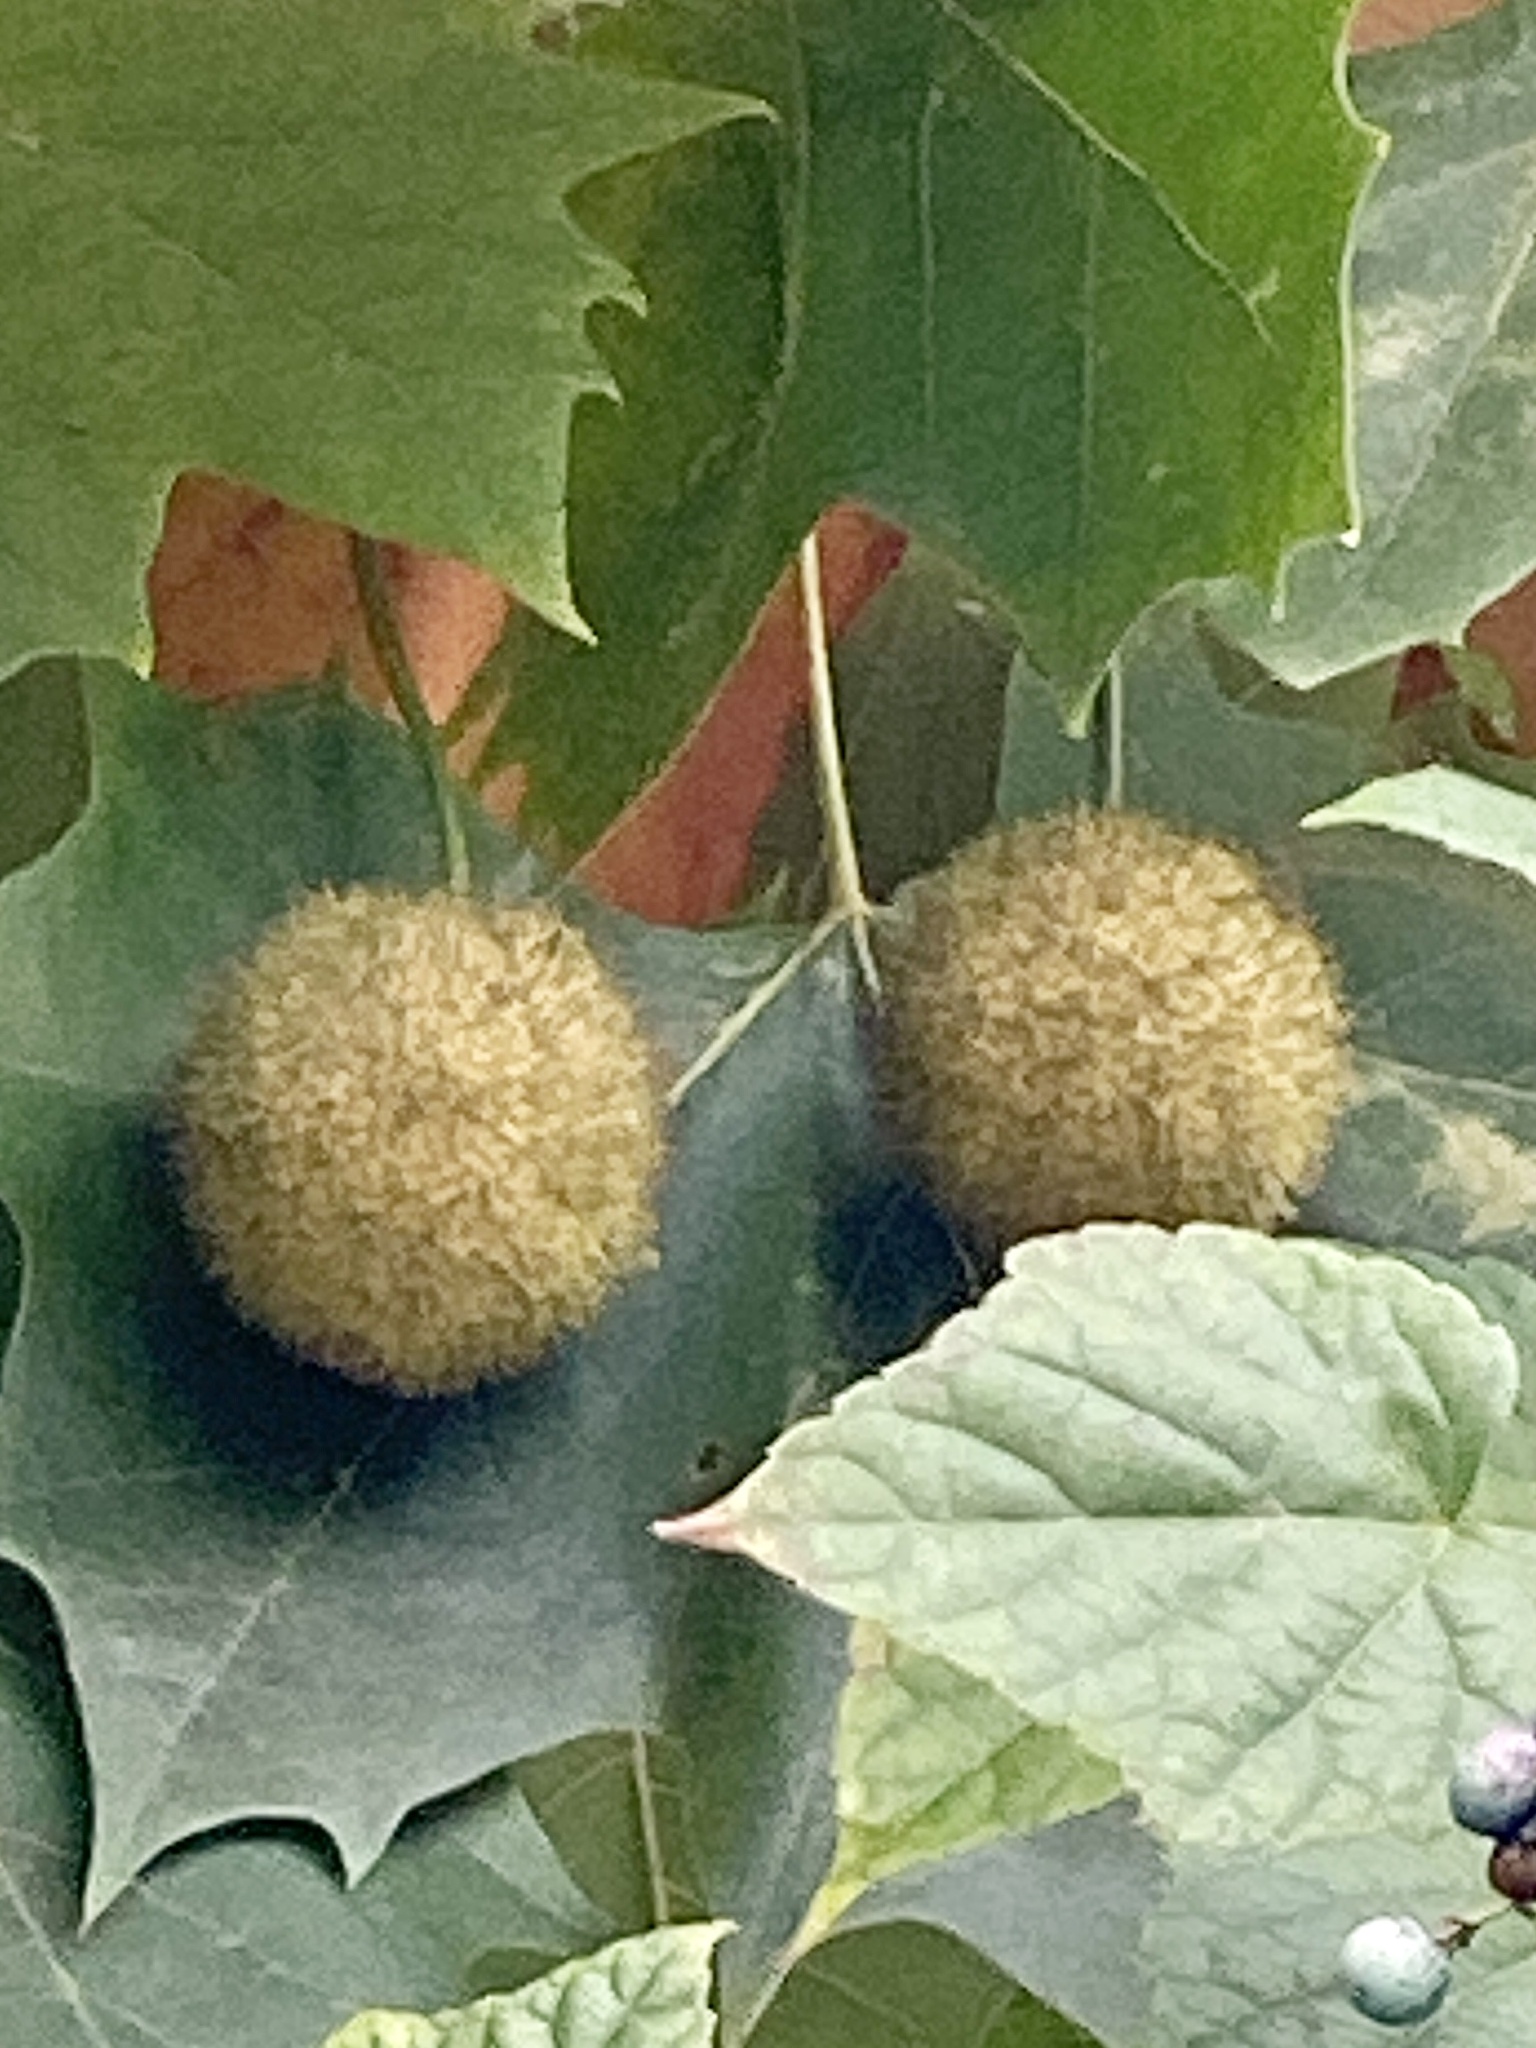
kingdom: Plantae
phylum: Tracheophyta
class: Magnoliopsida
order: Proteales
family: Platanaceae
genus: Platanus
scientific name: Platanus occidentalis
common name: American sycamore
